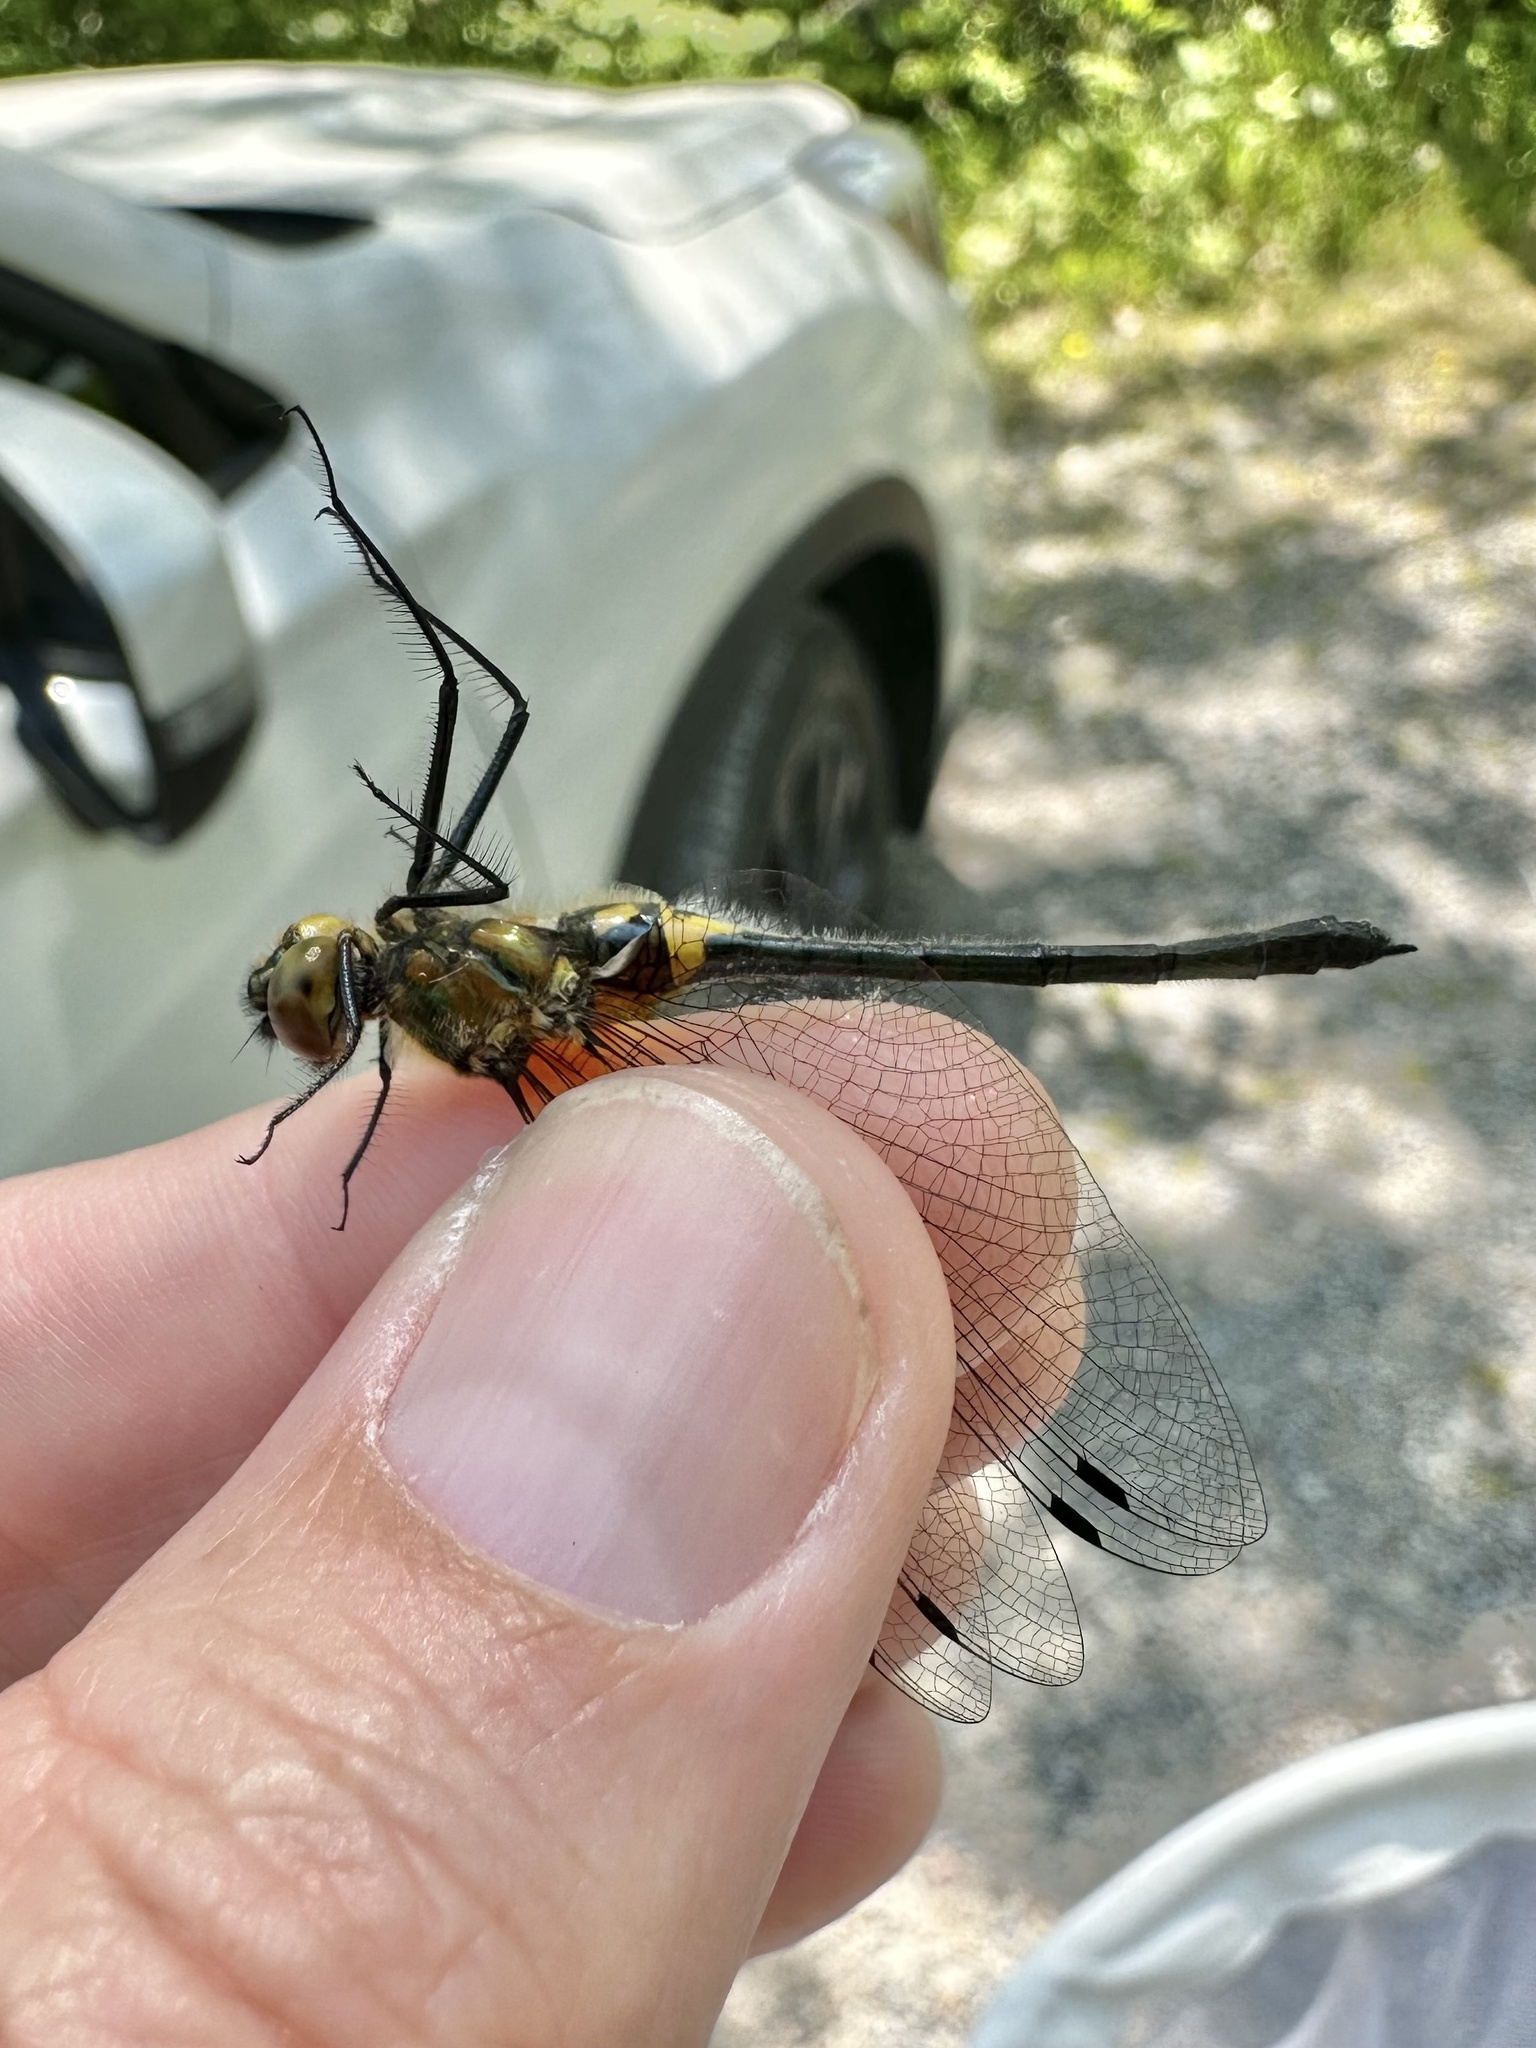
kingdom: Animalia
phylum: Arthropoda
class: Insecta
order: Odonata
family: Corduliidae
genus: Dorocordulia
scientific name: Dorocordulia libera
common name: Racket-tailed emerald
